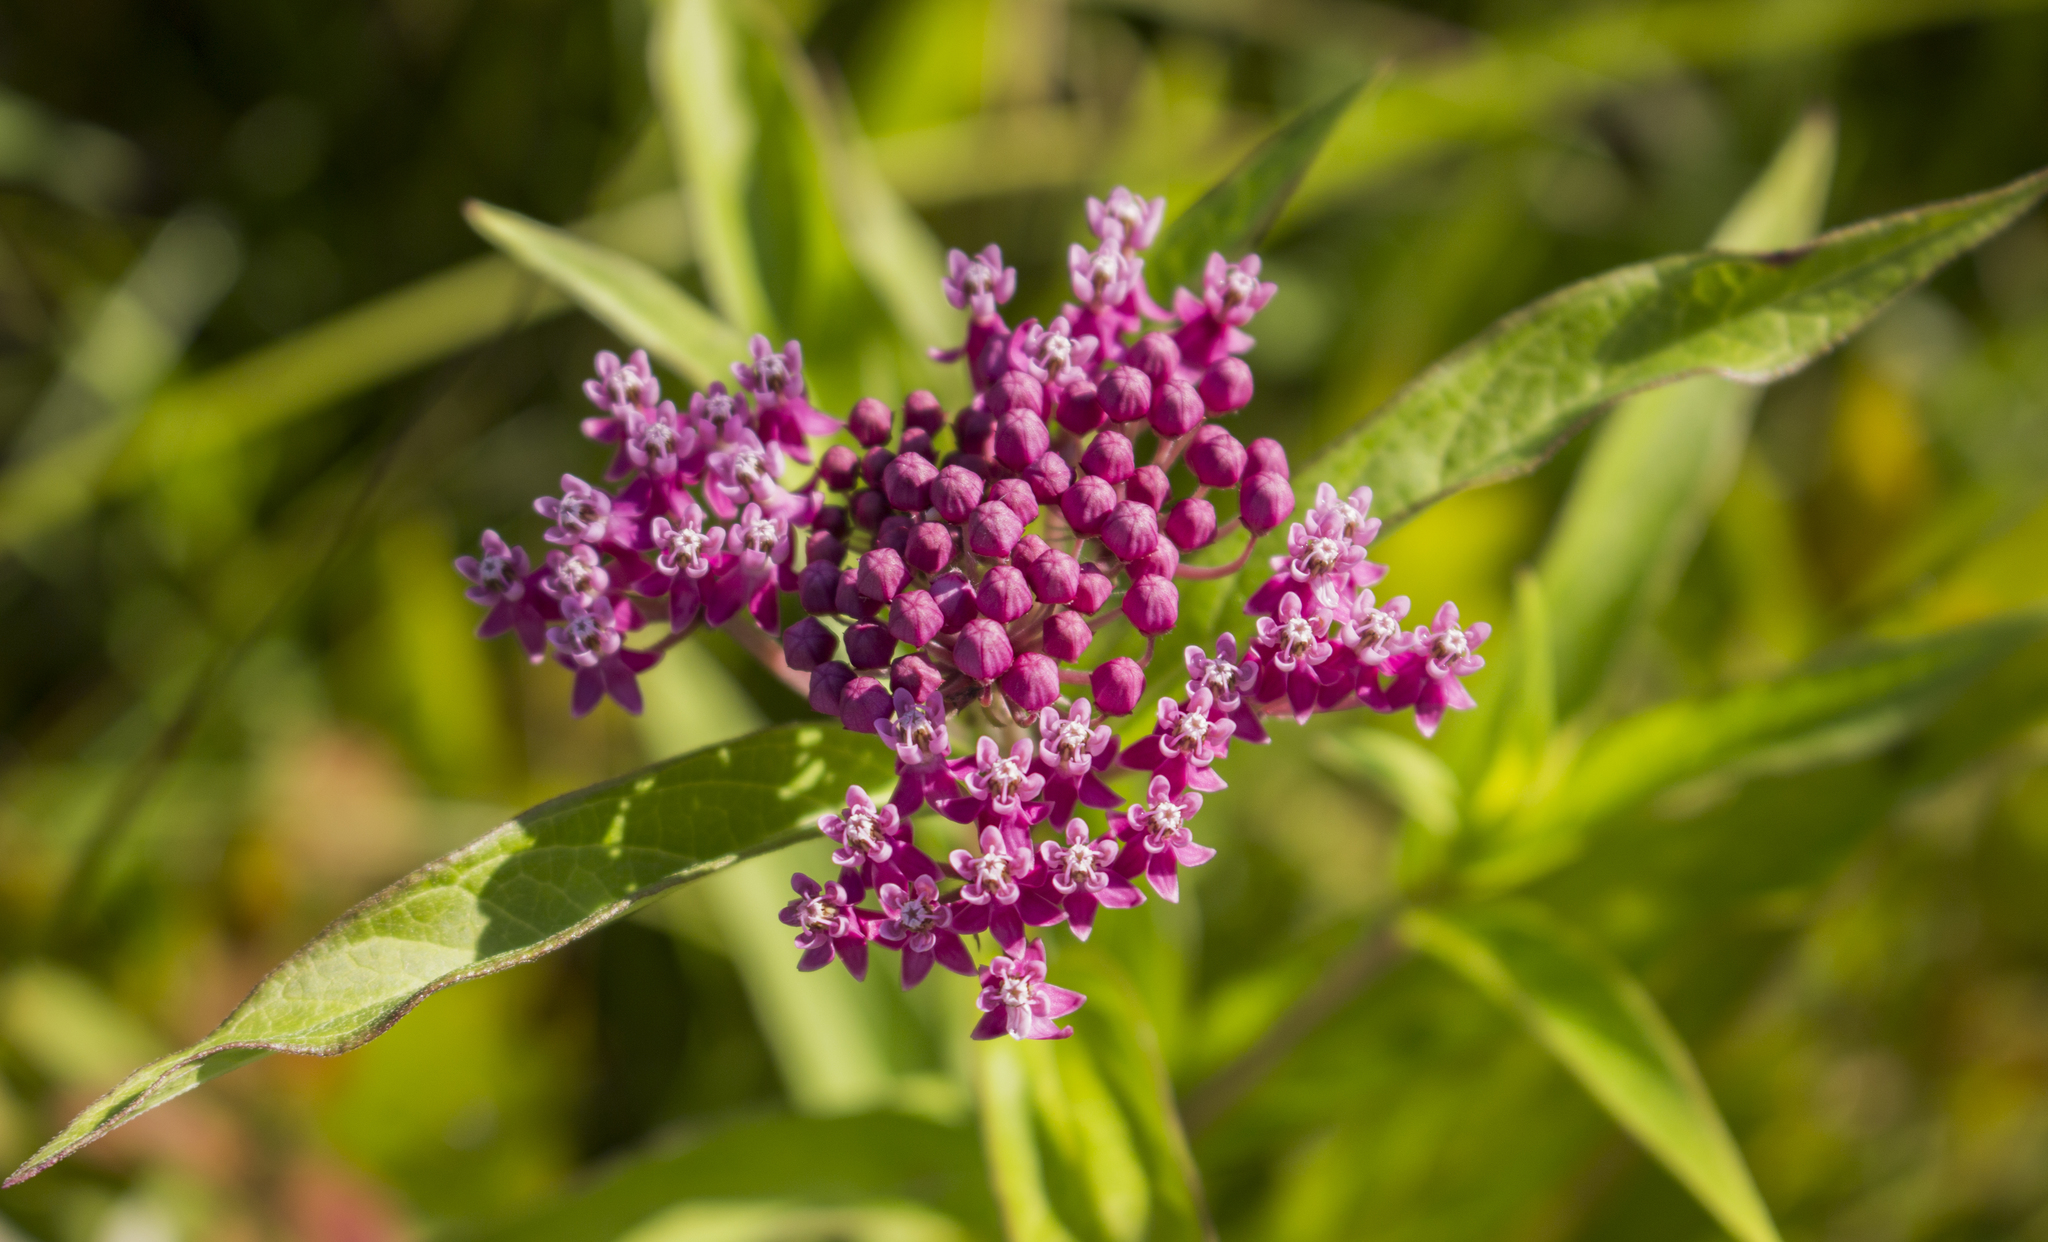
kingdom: Plantae
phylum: Tracheophyta
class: Magnoliopsida
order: Gentianales
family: Apocynaceae
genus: Asclepias
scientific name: Asclepias incarnata
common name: Swamp milkweed
